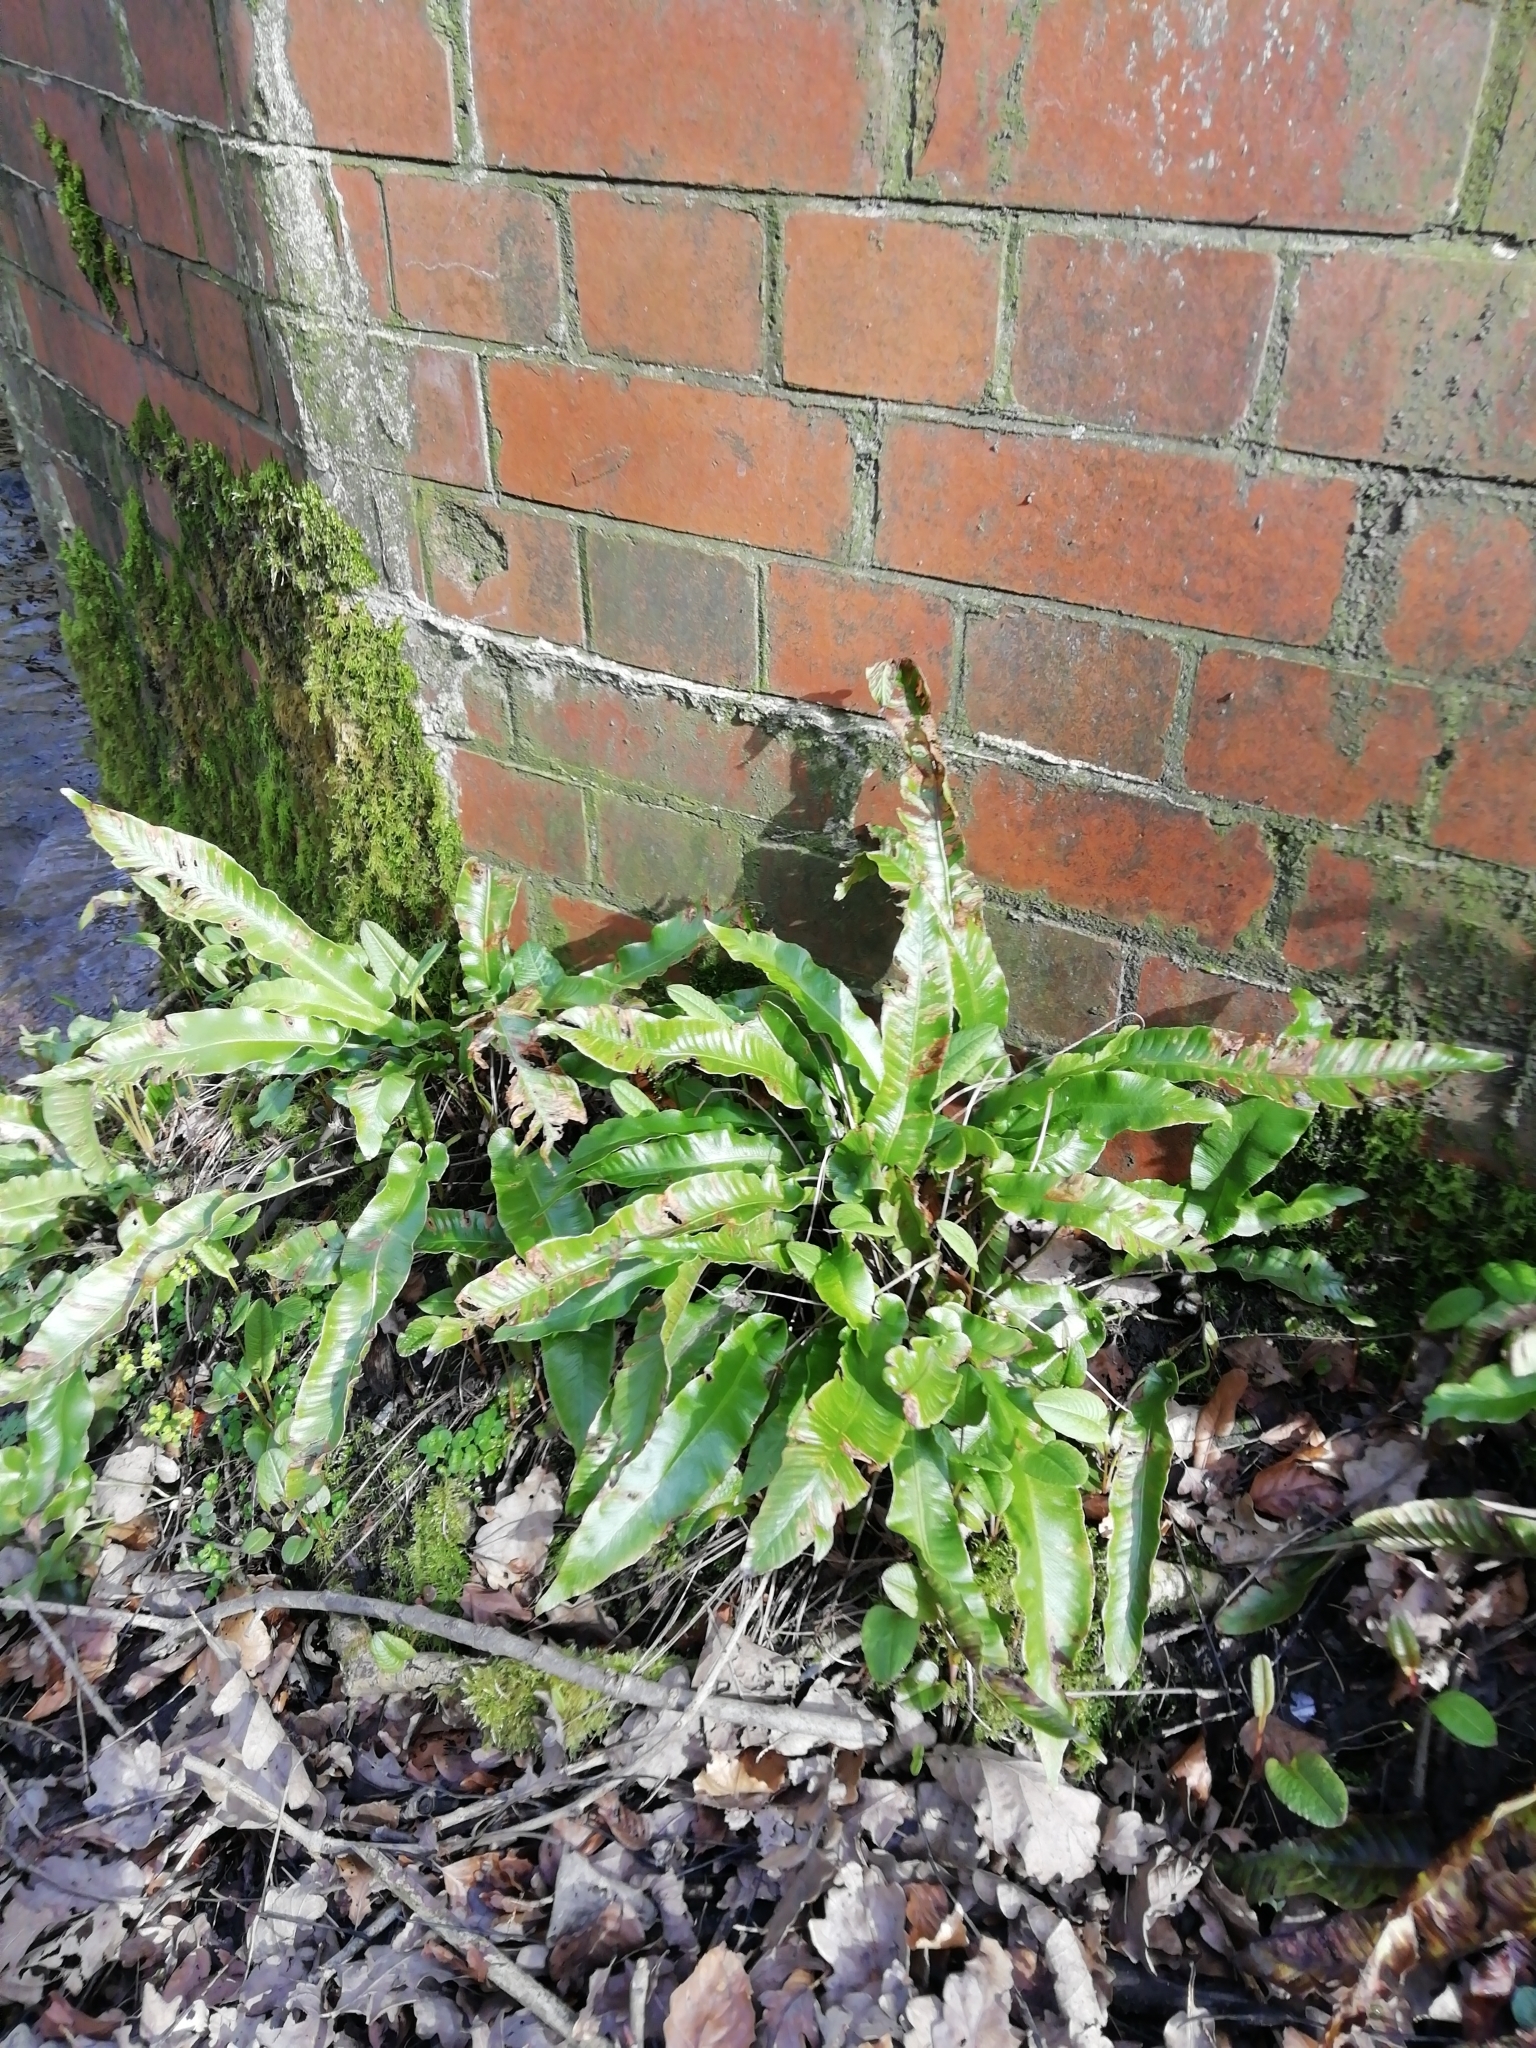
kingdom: Plantae
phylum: Tracheophyta
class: Polypodiopsida
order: Polypodiales
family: Aspleniaceae
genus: Asplenium
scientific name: Asplenium scolopendrium
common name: Hart's-tongue fern
